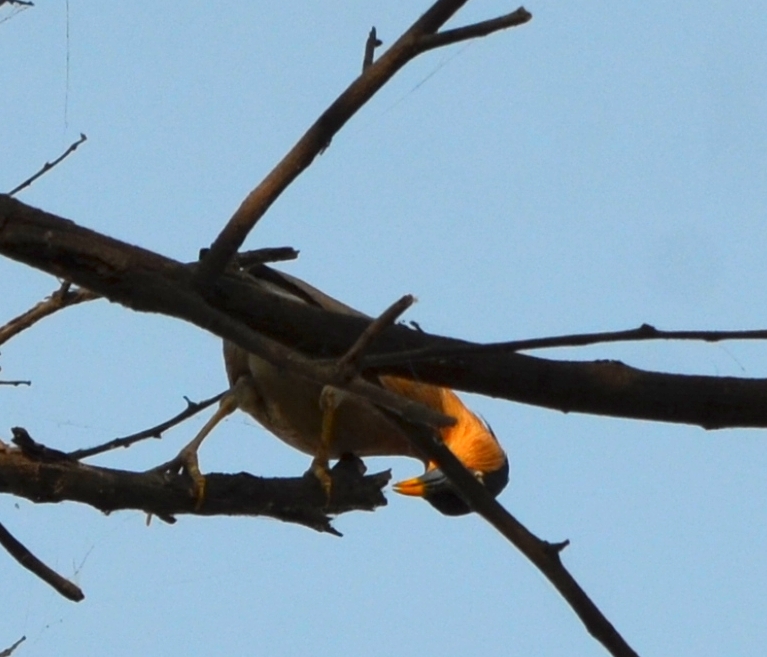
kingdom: Animalia
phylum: Chordata
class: Aves
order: Passeriformes
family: Sturnidae
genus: Sturnia
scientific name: Sturnia pagodarum
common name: Brahminy starling
